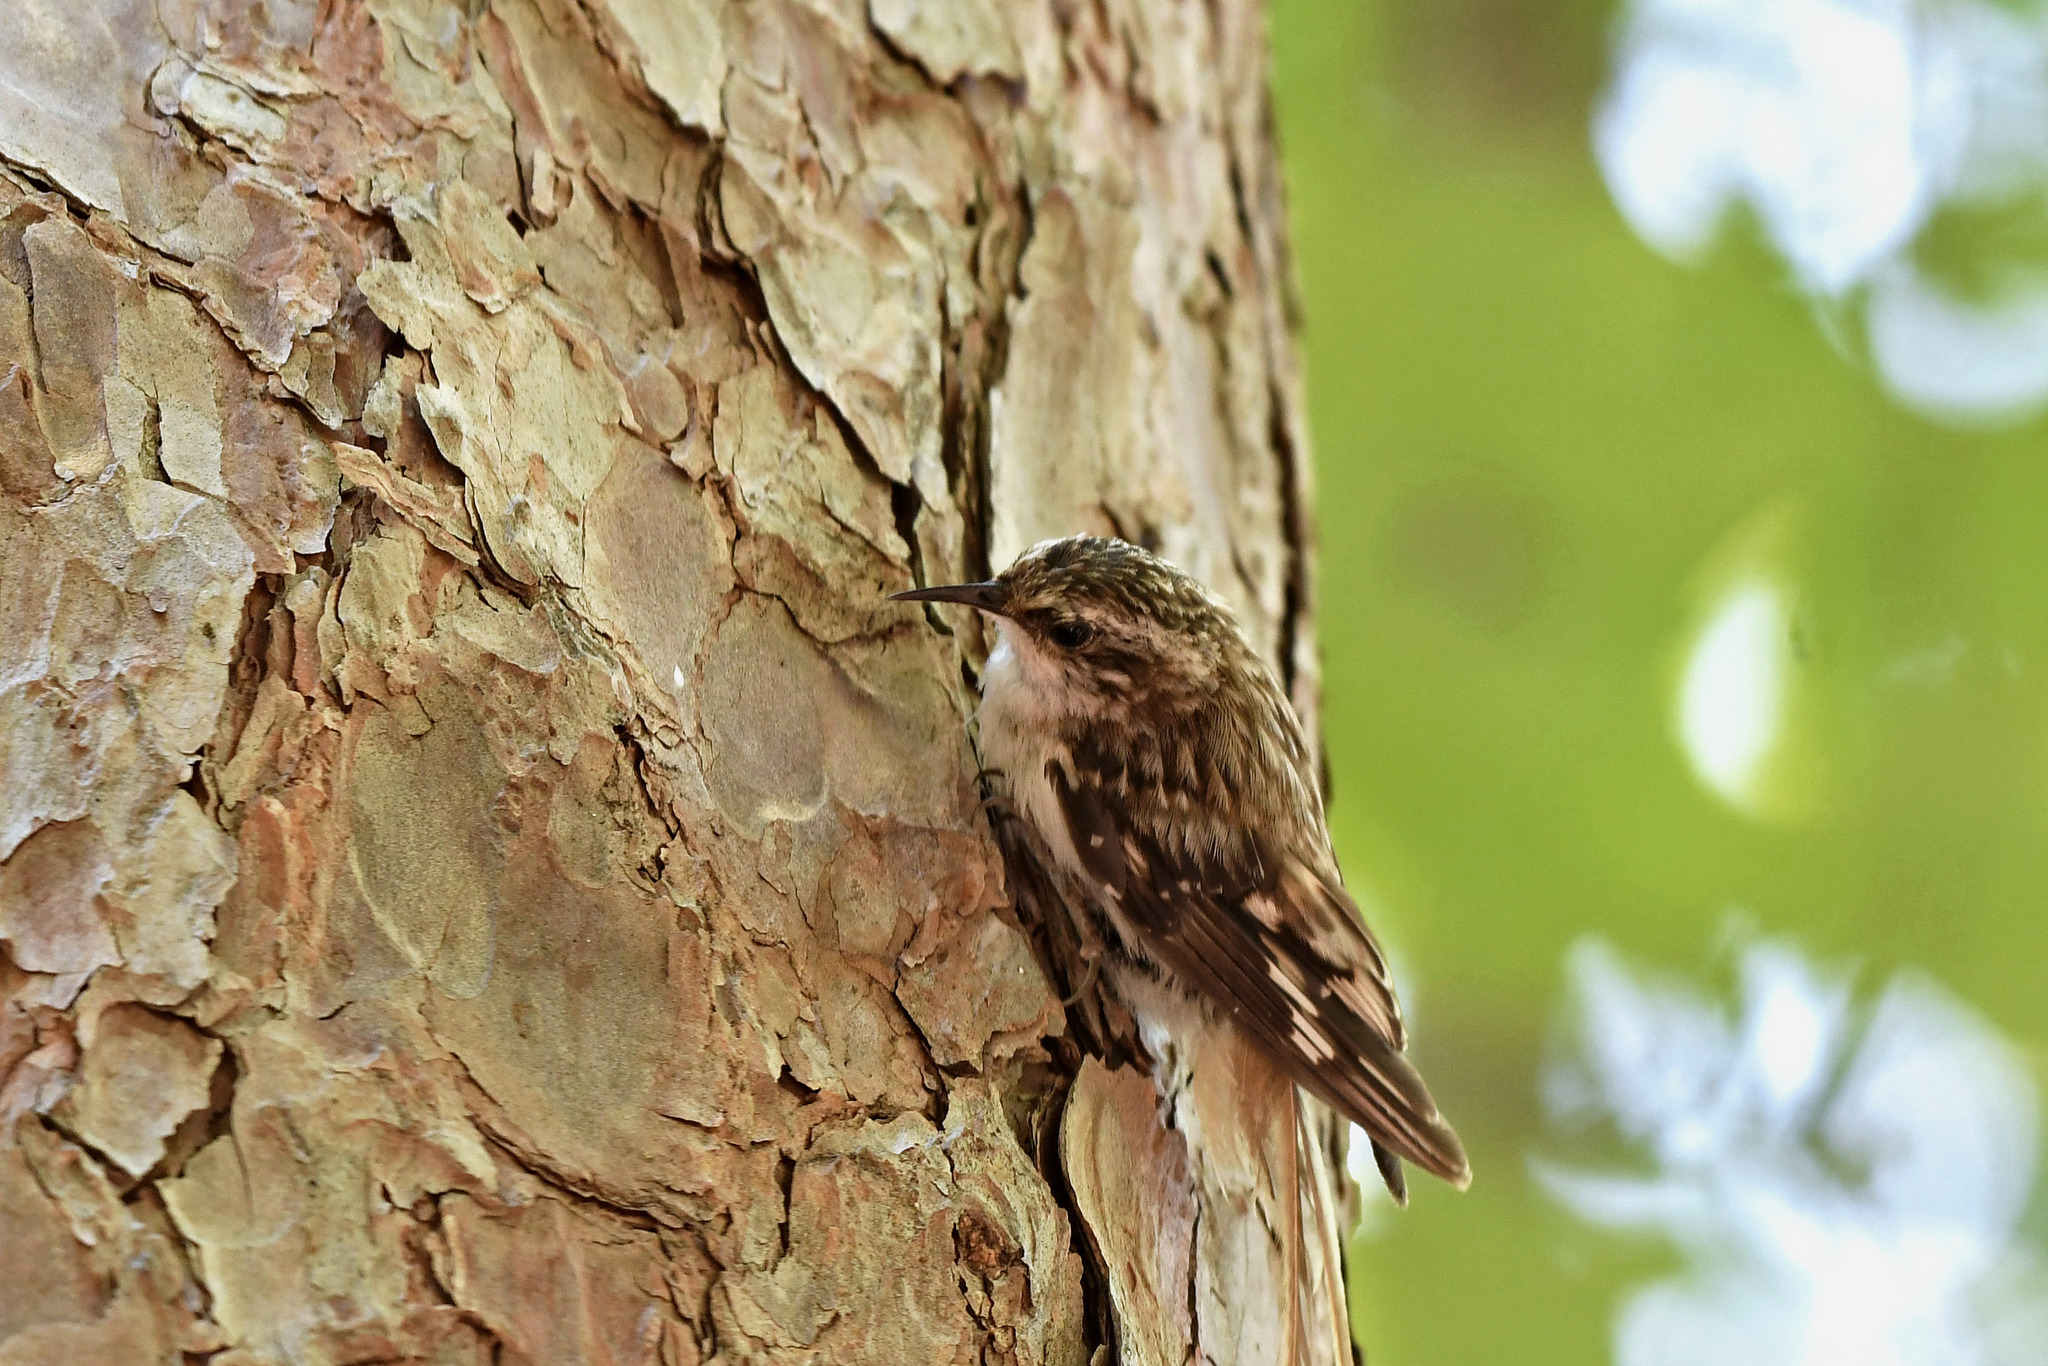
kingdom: Animalia
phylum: Chordata
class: Aves
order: Passeriformes
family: Certhiidae
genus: Certhia
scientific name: Certhia americana
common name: Brown creeper
